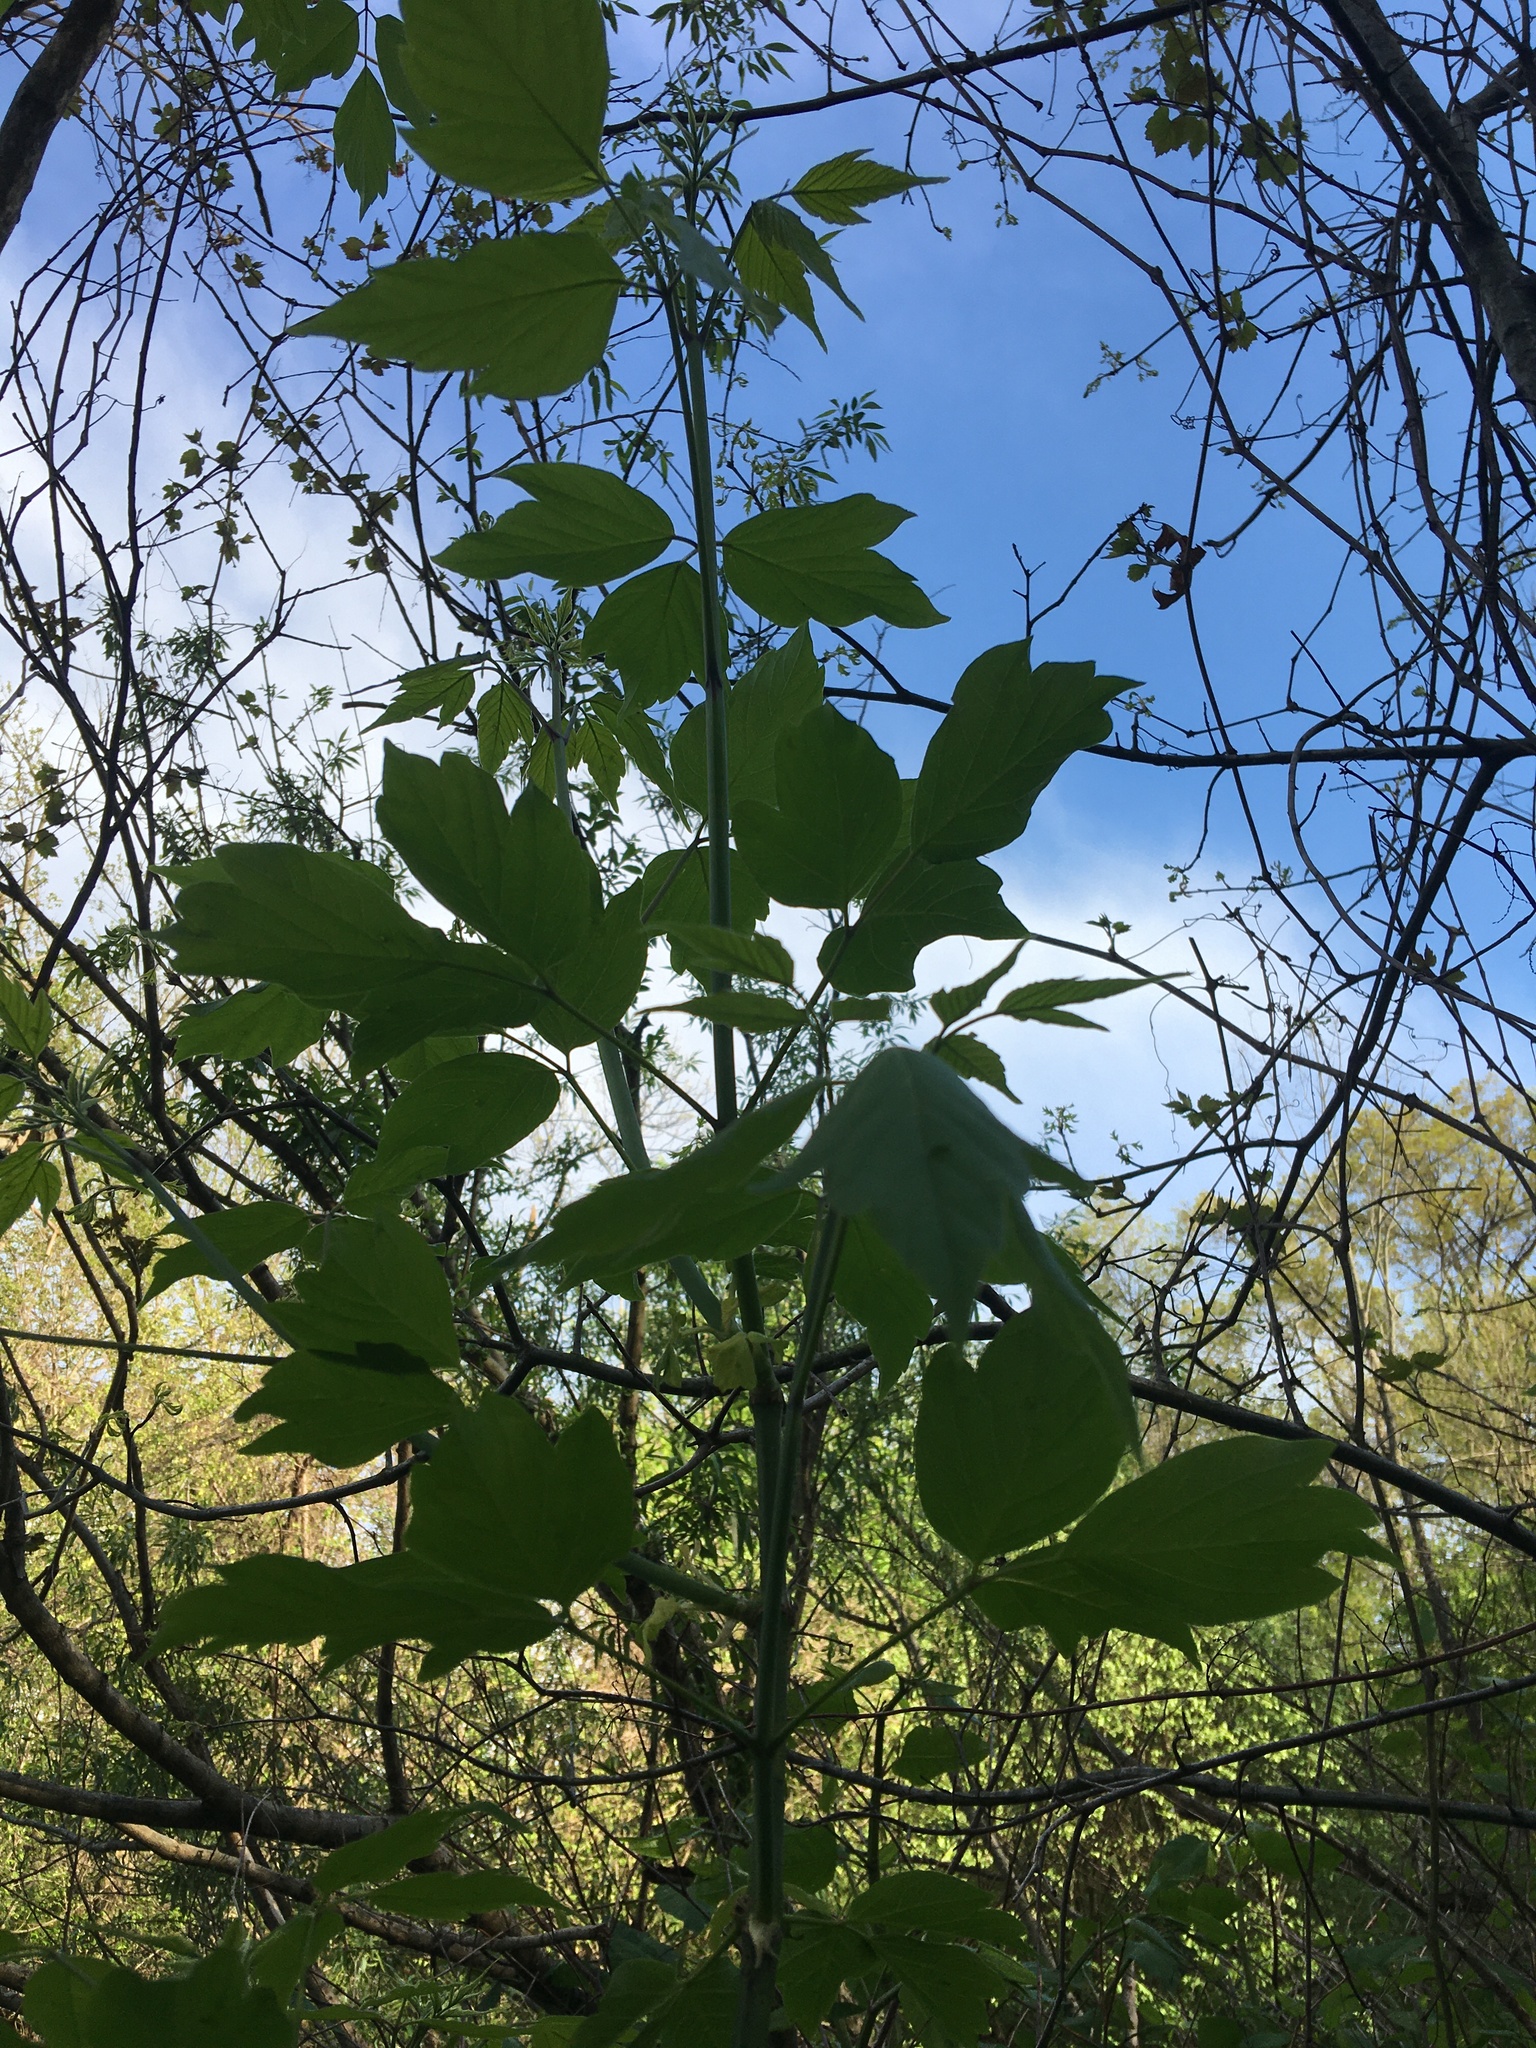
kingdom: Plantae
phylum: Tracheophyta
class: Magnoliopsida
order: Sapindales
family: Sapindaceae
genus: Acer
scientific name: Acer negundo
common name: Ashleaf maple
